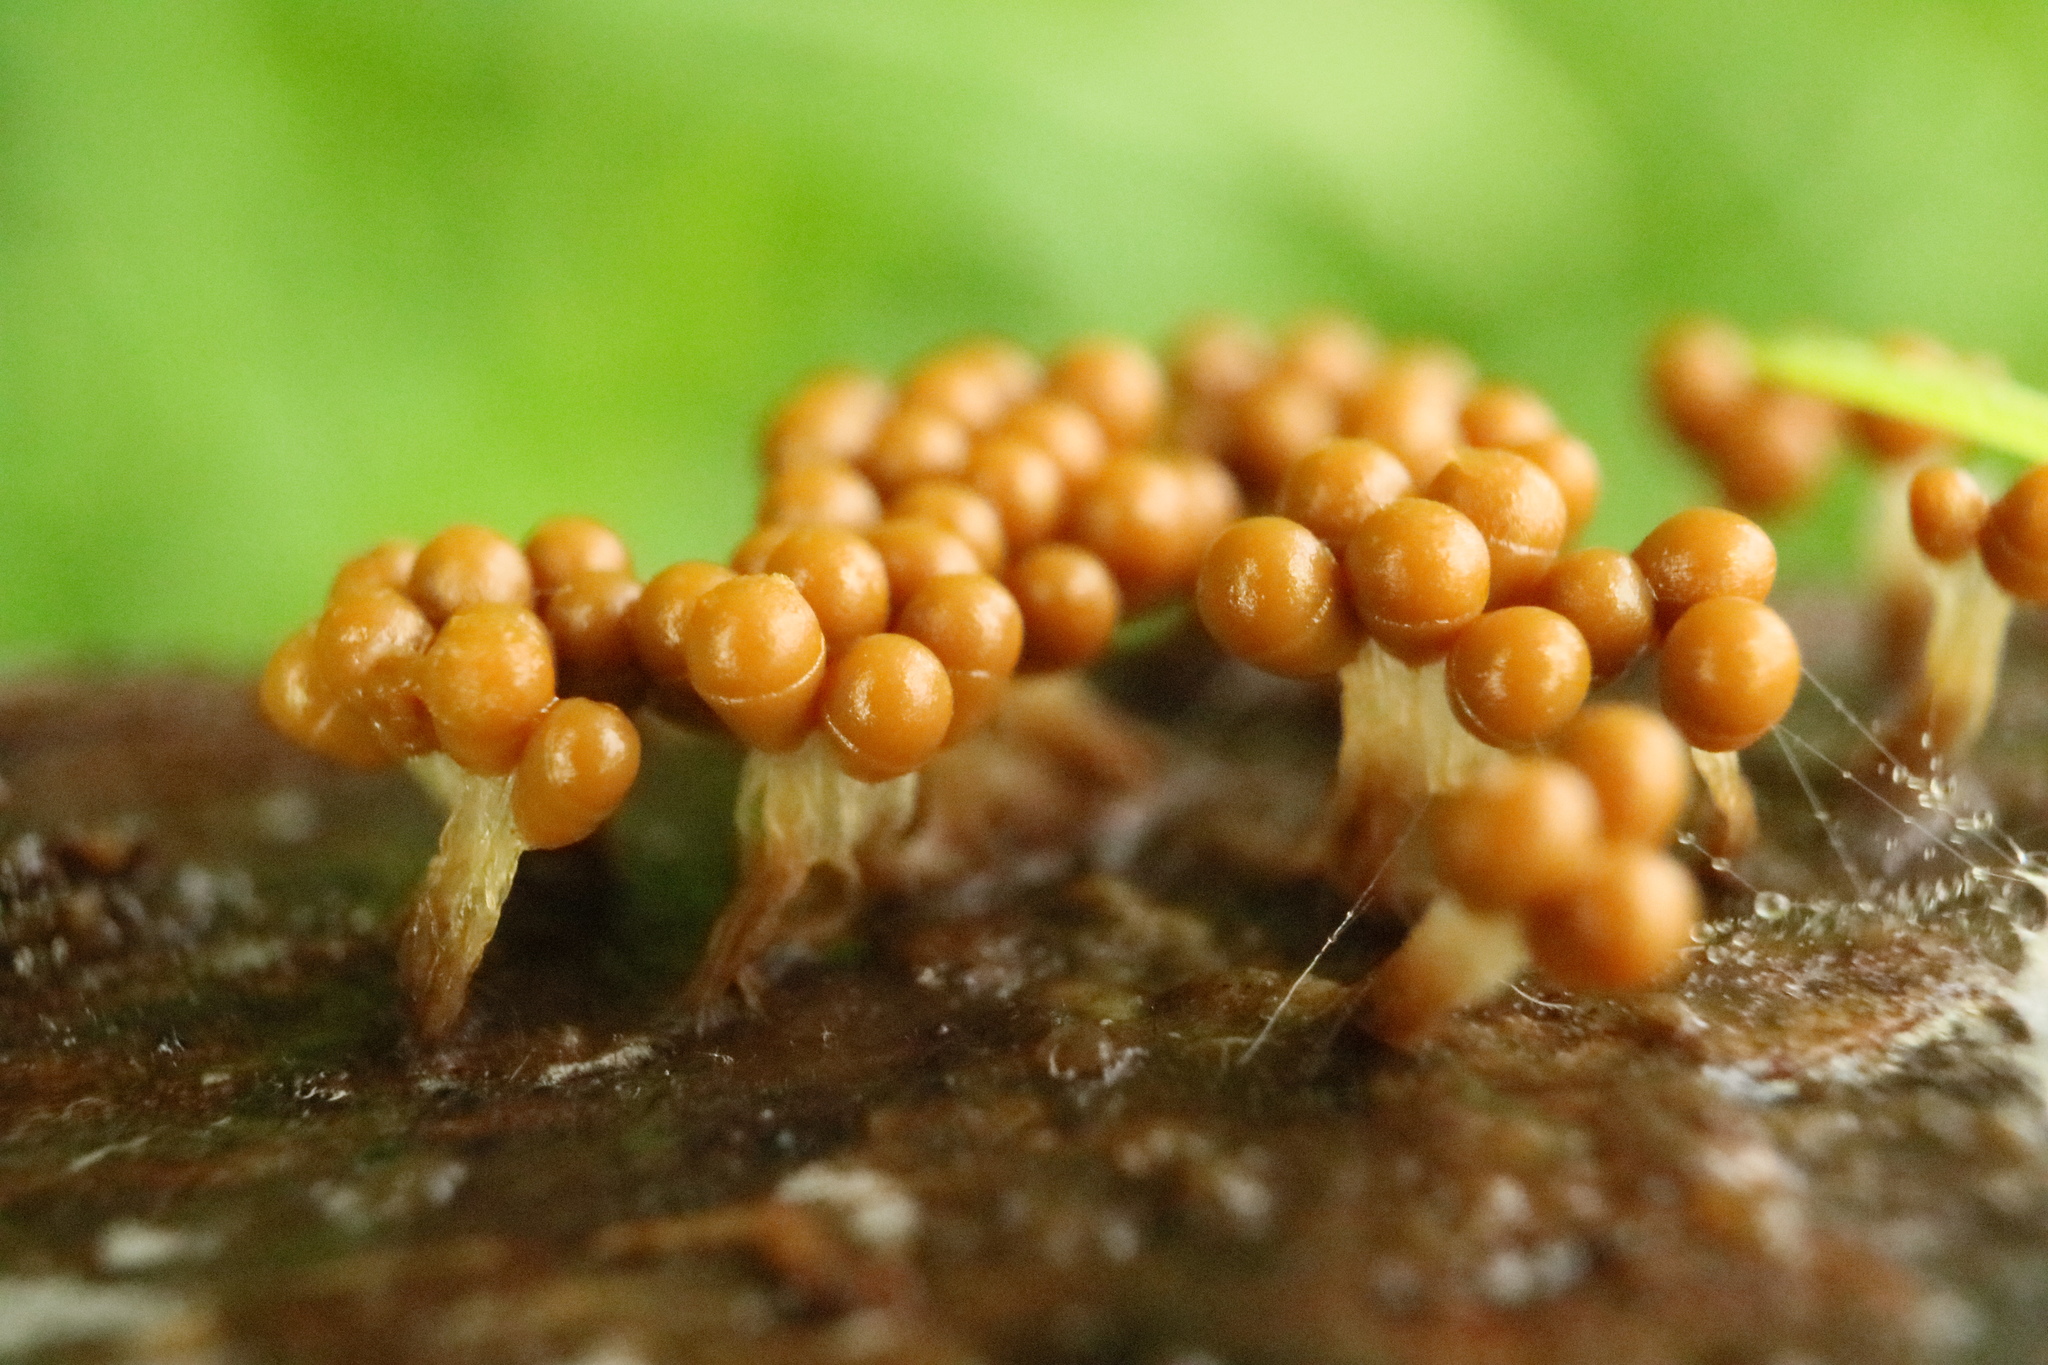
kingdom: Protozoa
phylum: Mycetozoa
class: Myxomycetes
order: Trichiales
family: Trichiaceae
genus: Oligonema
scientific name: Oligonema verrucosum
